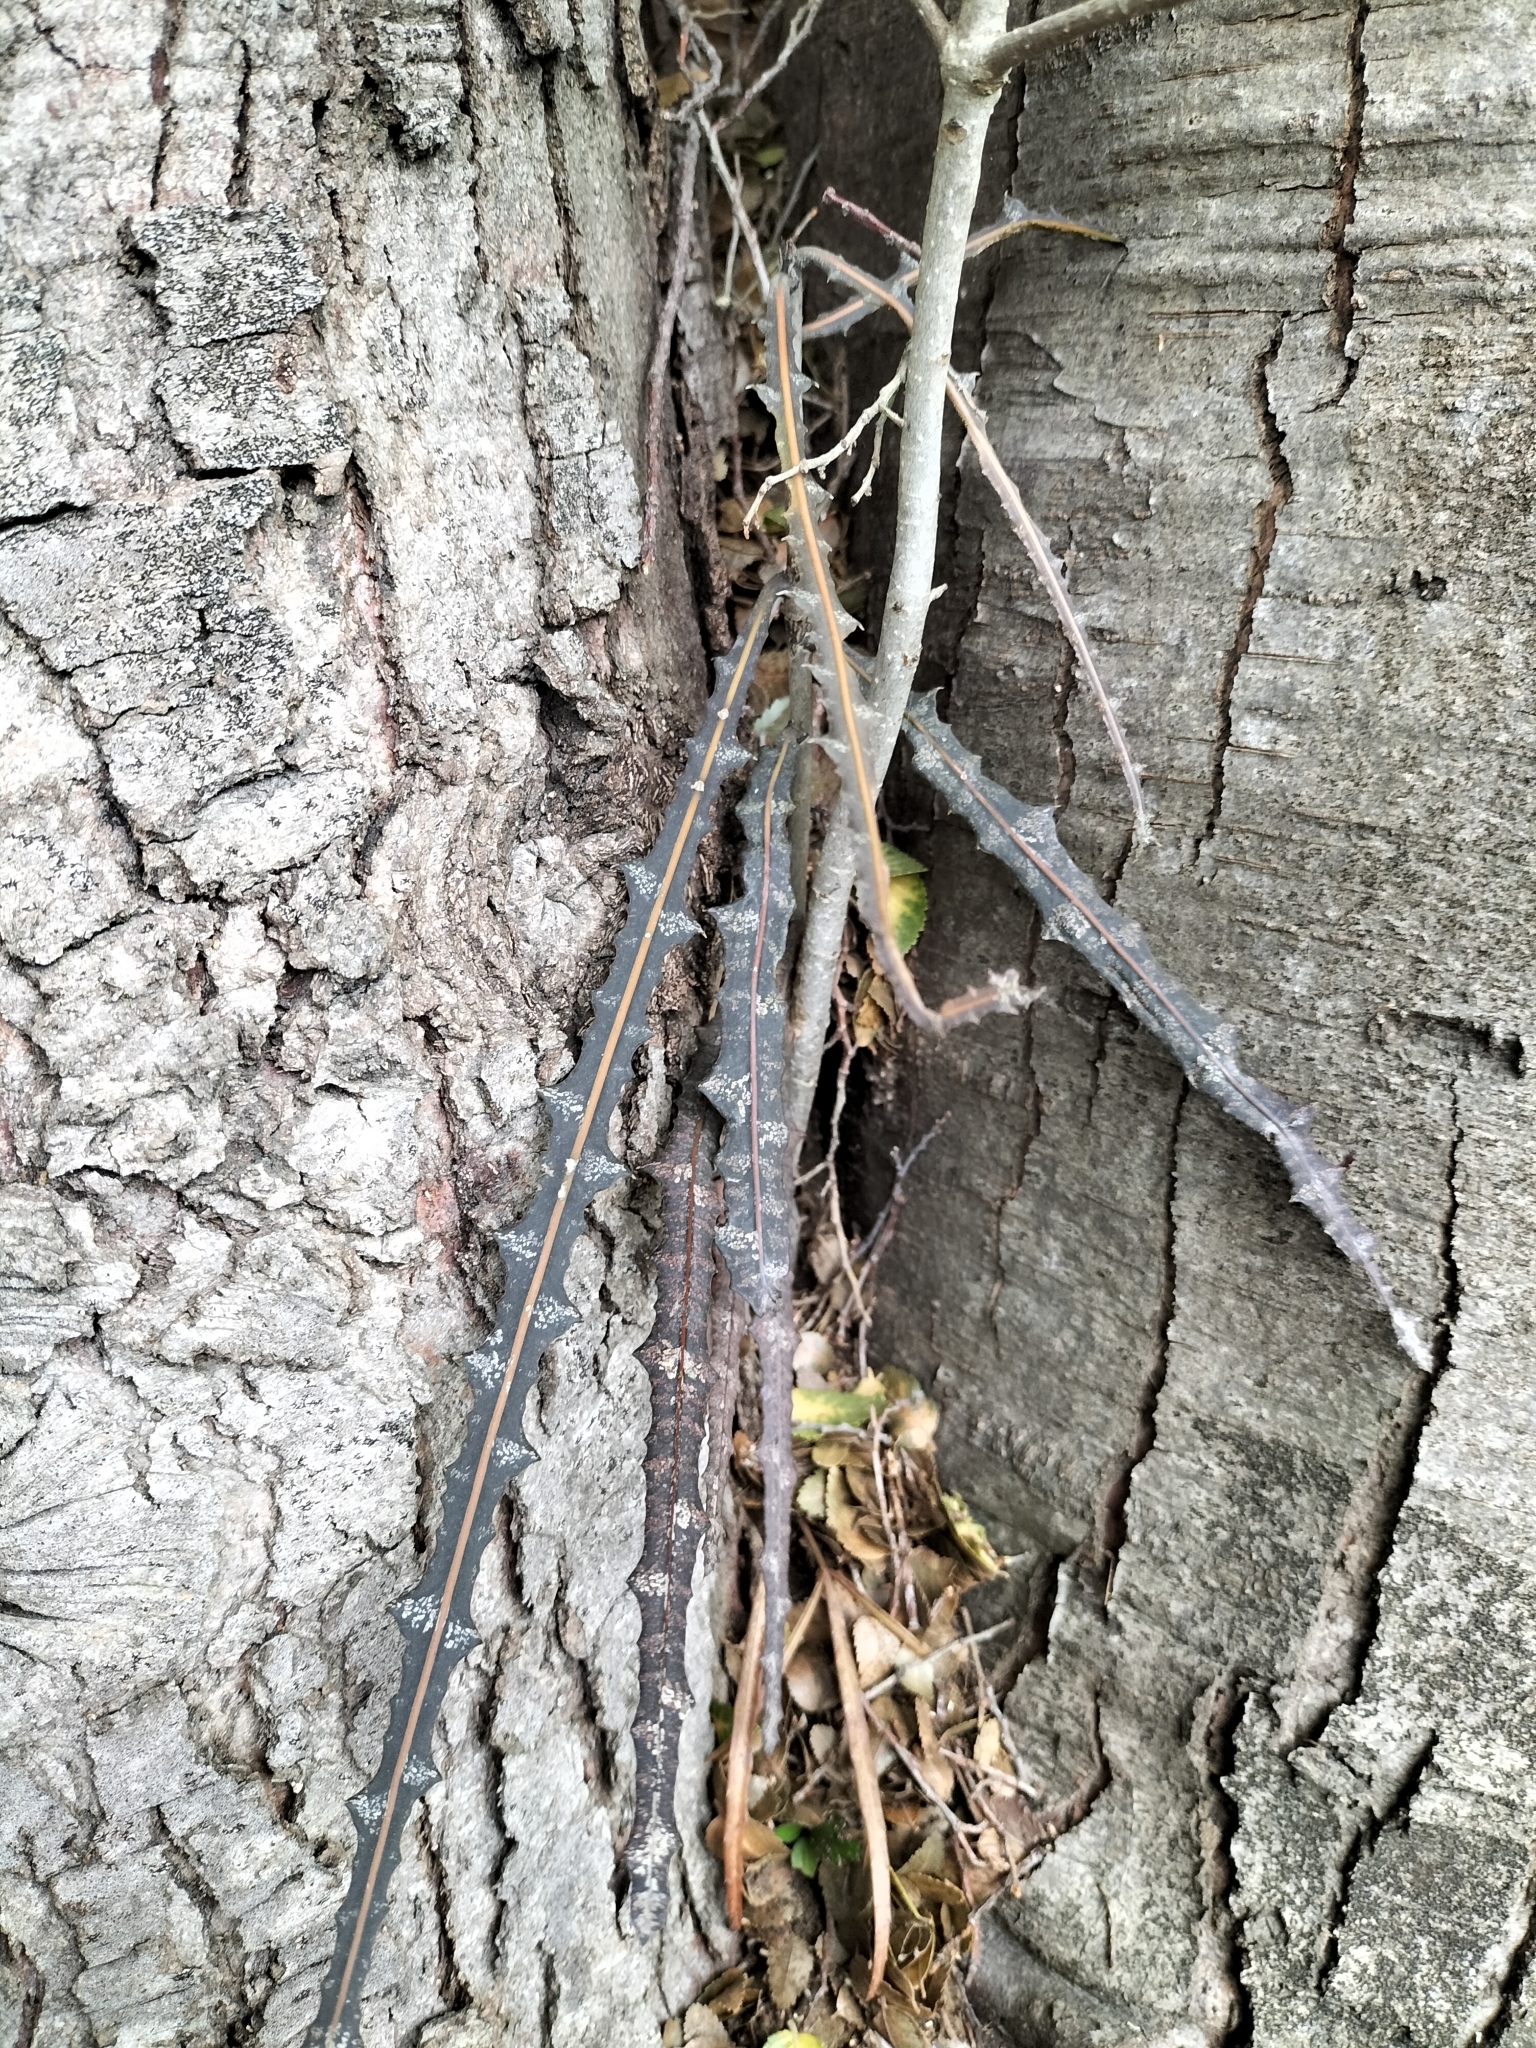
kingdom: Plantae
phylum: Tracheophyta
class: Magnoliopsida
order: Apiales
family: Araliaceae
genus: Pseudopanax
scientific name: Pseudopanax ferox
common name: Fierce lancewood
